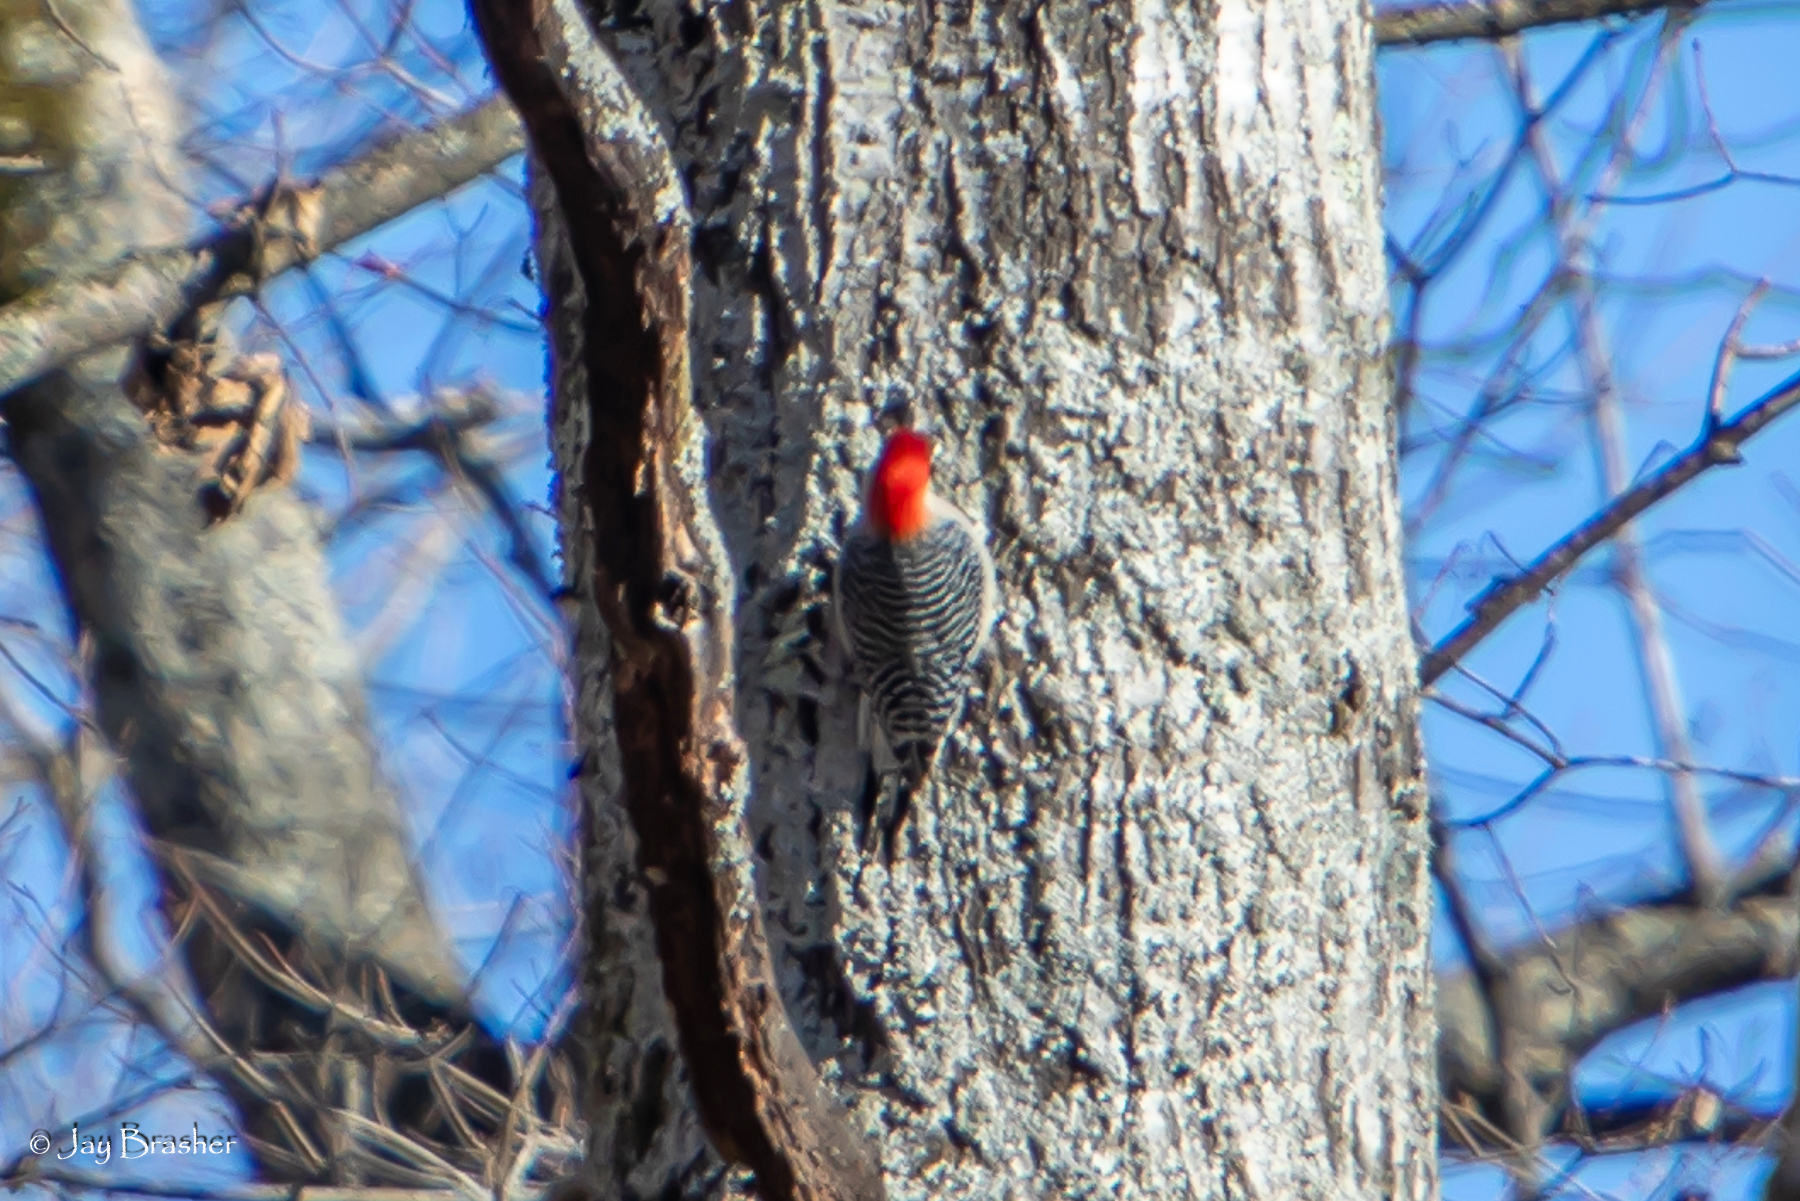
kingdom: Animalia
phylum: Chordata
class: Aves
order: Piciformes
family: Picidae
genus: Melanerpes
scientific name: Melanerpes carolinus
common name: Red-bellied woodpecker
